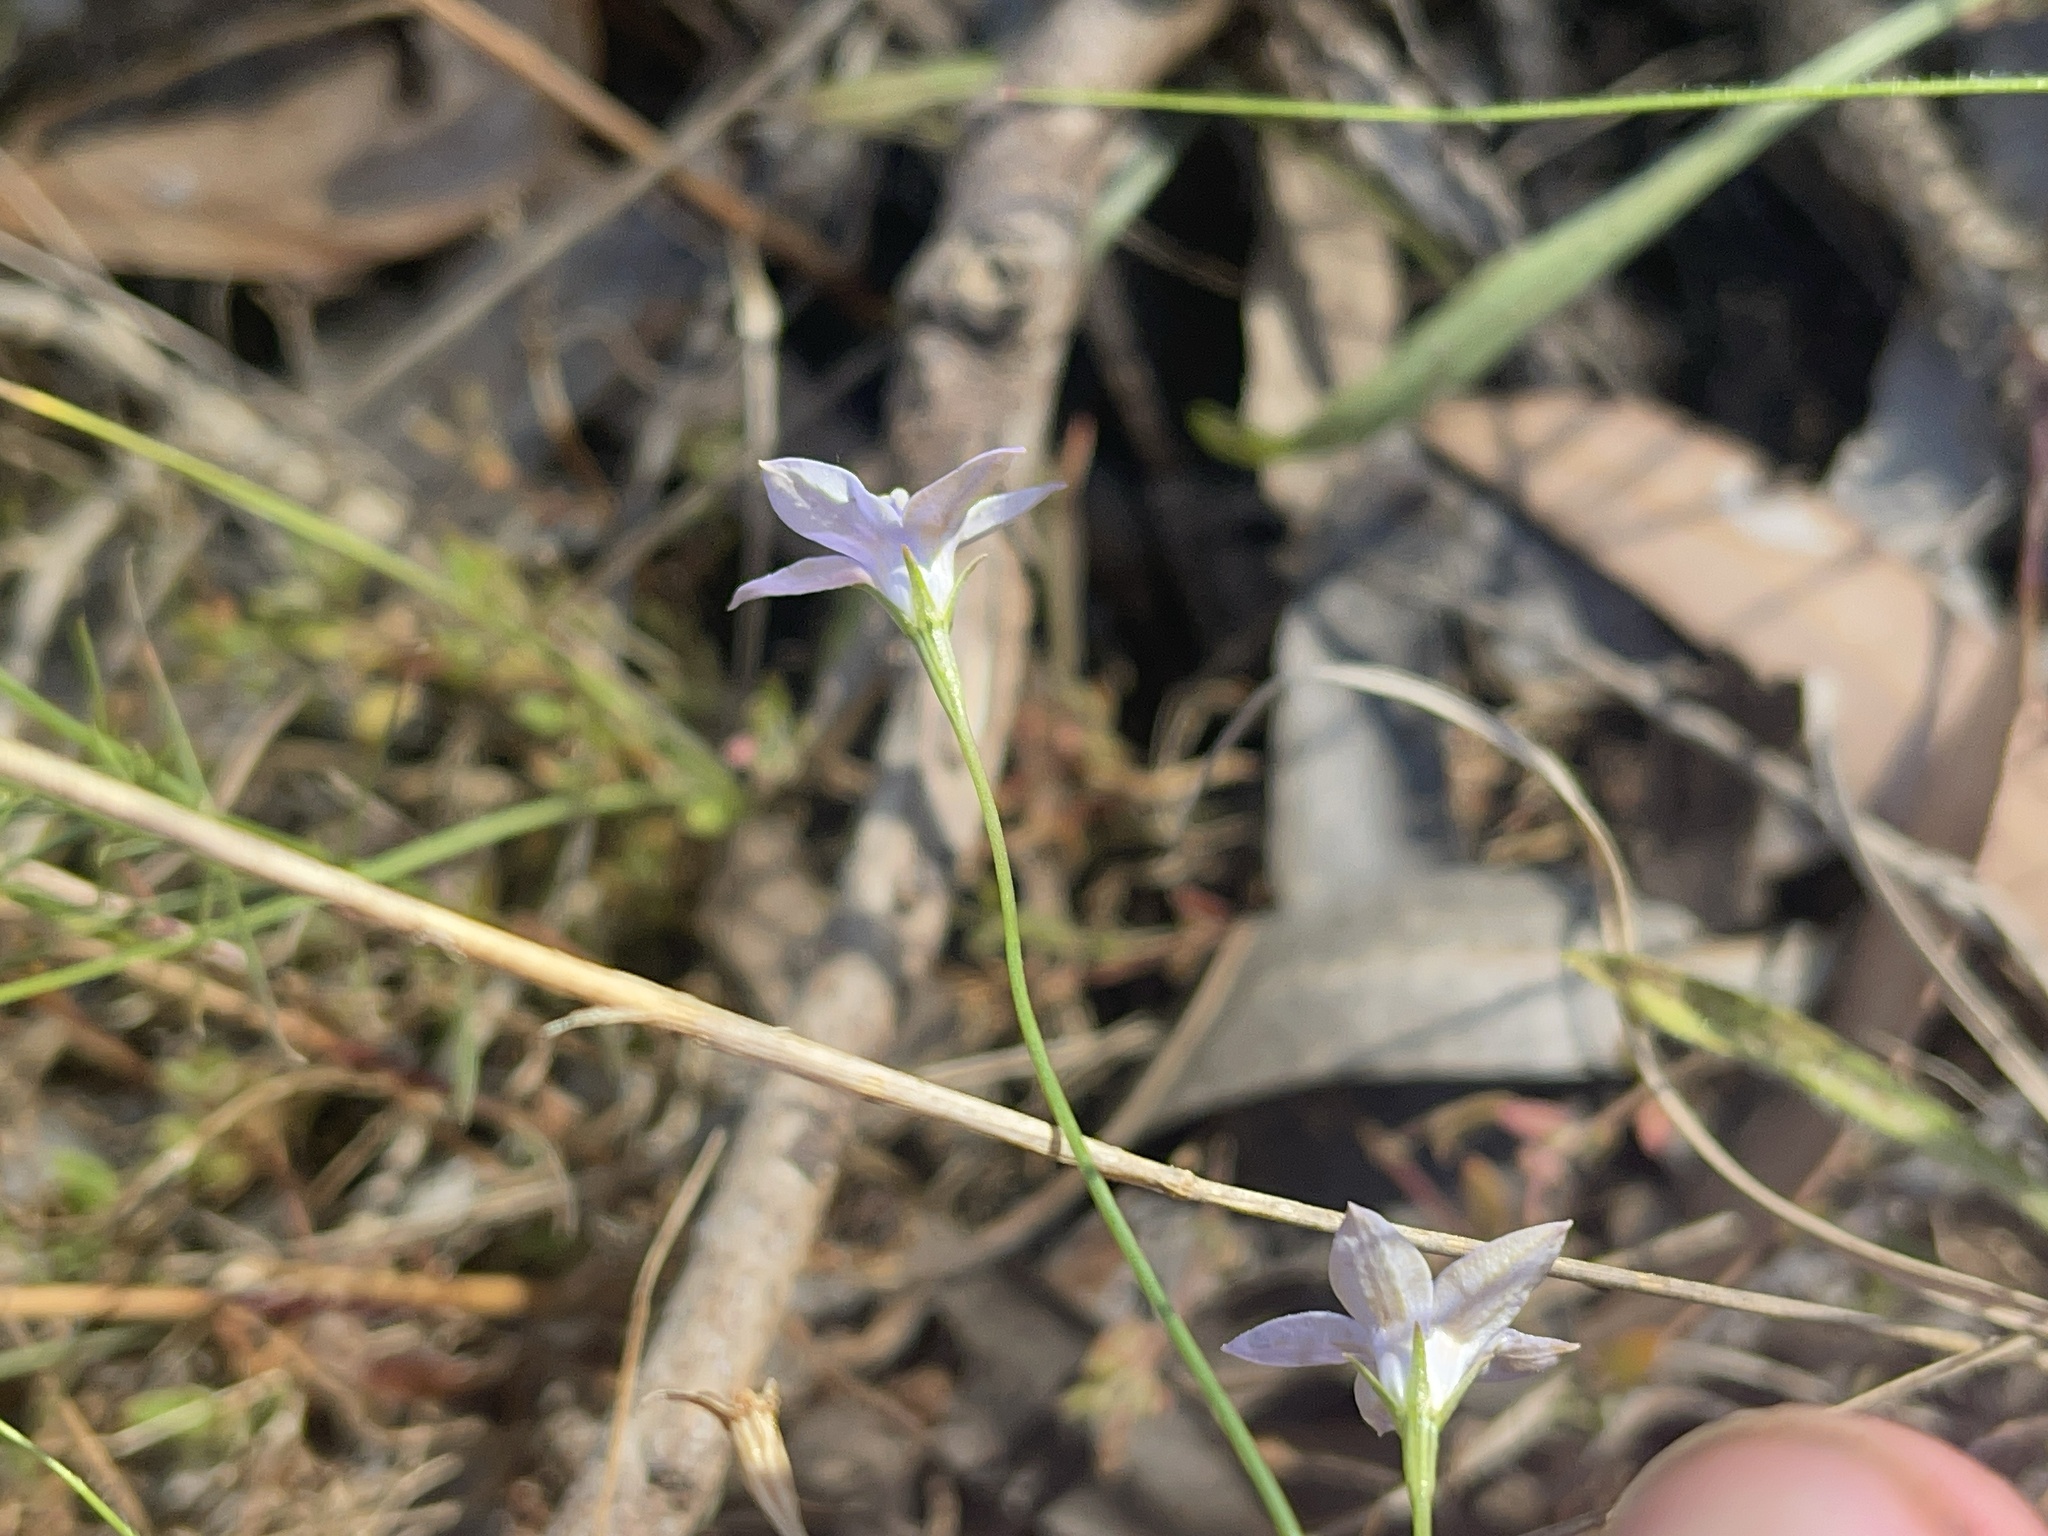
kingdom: Plantae
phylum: Tracheophyta
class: Magnoliopsida
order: Asterales
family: Campanulaceae
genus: Wahlenbergia
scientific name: Wahlenbergia luteola
